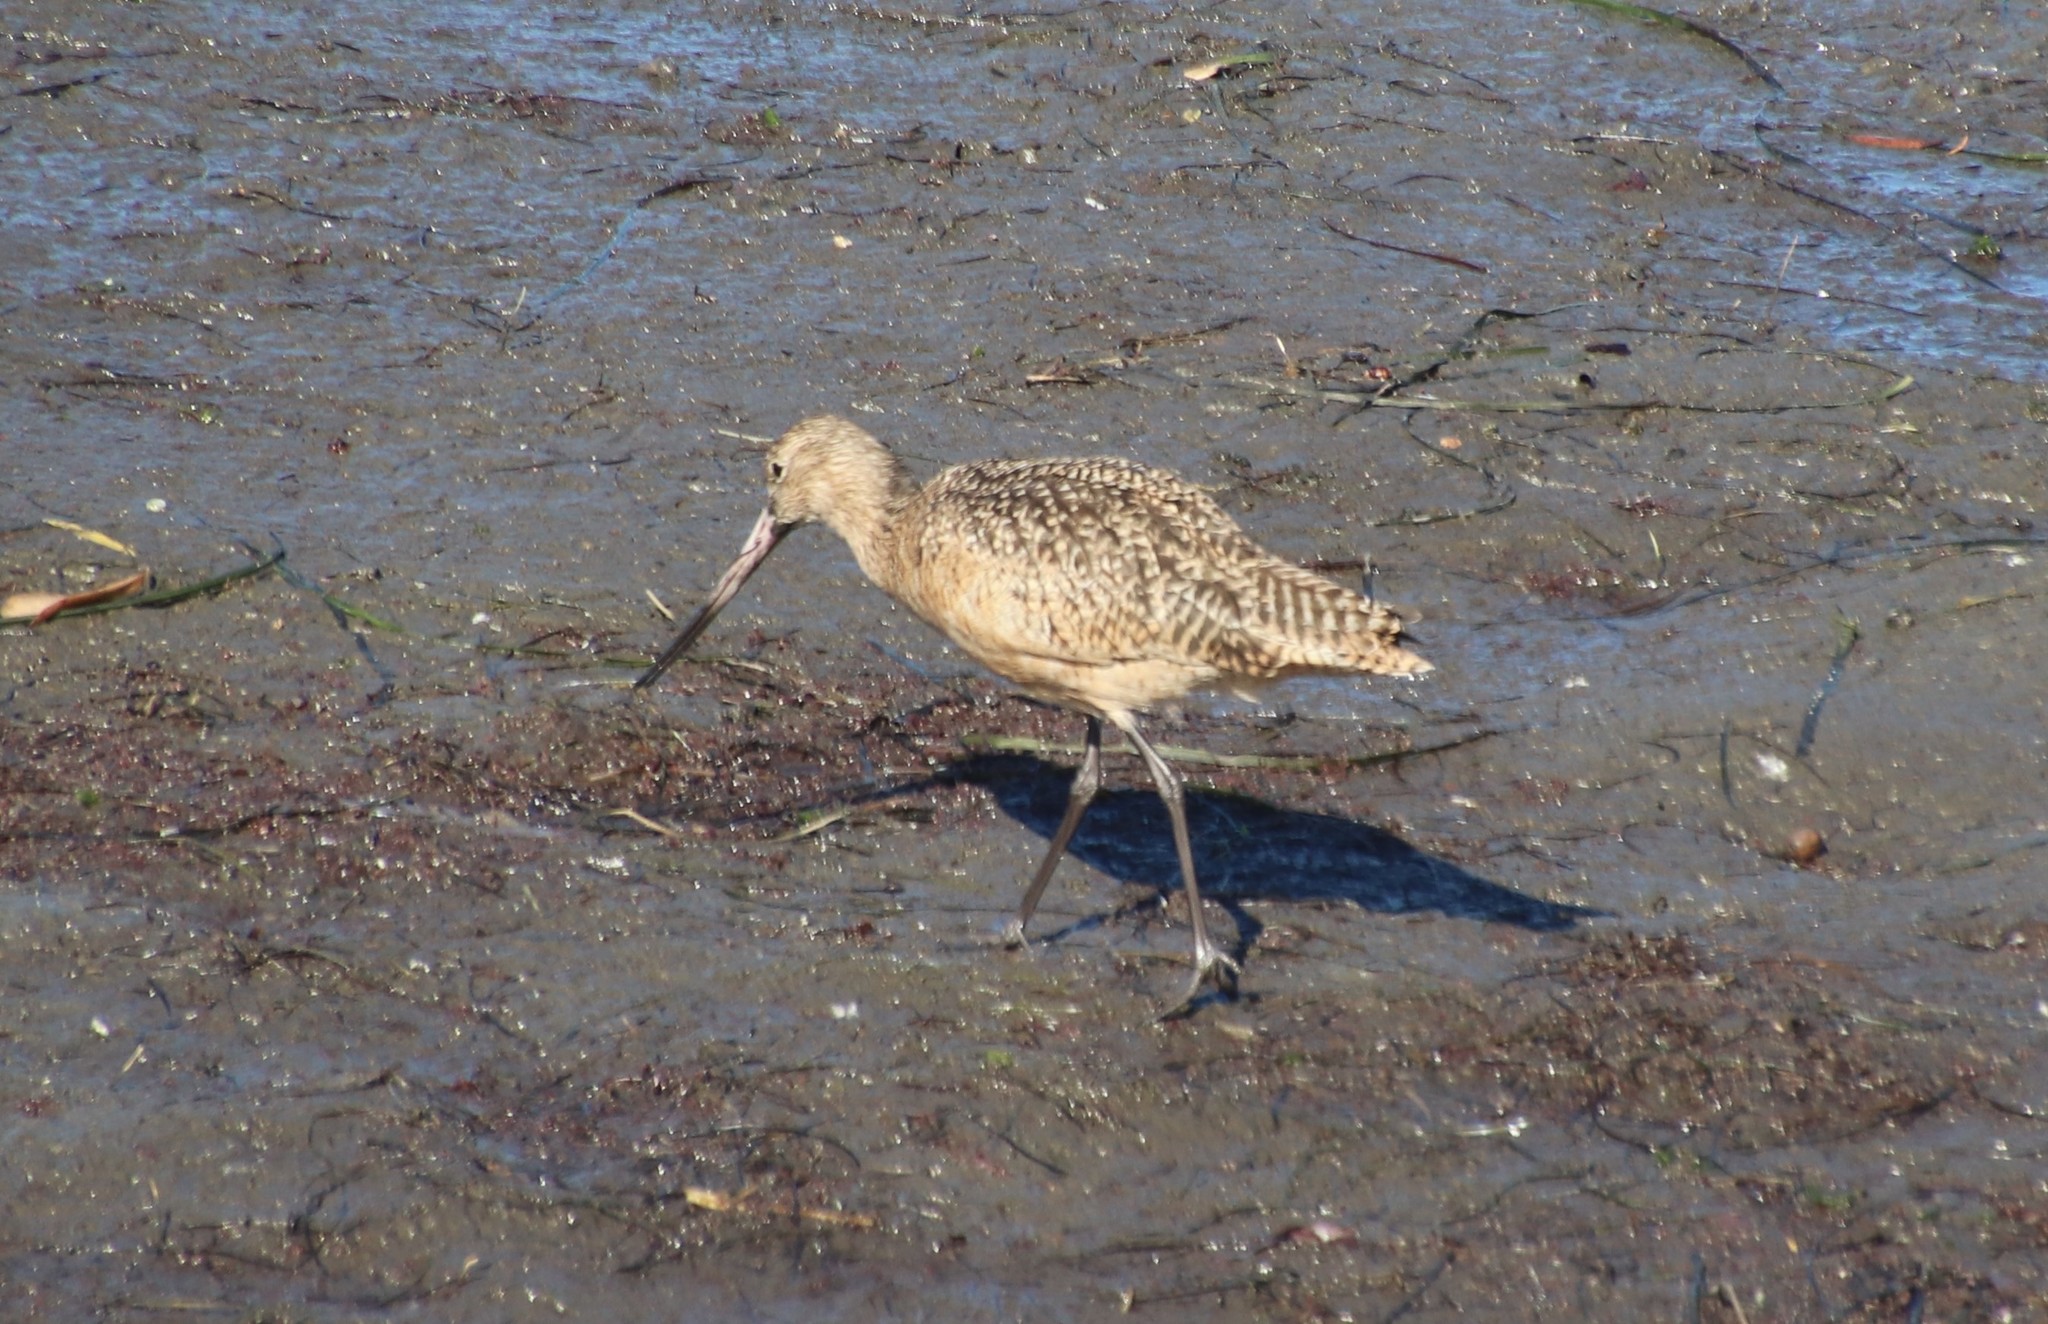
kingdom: Animalia
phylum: Chordata
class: Aves
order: Charadriiformes
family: Scolopacidae
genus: Limosa
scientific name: Limosa fedoa
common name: Marbled godwit
